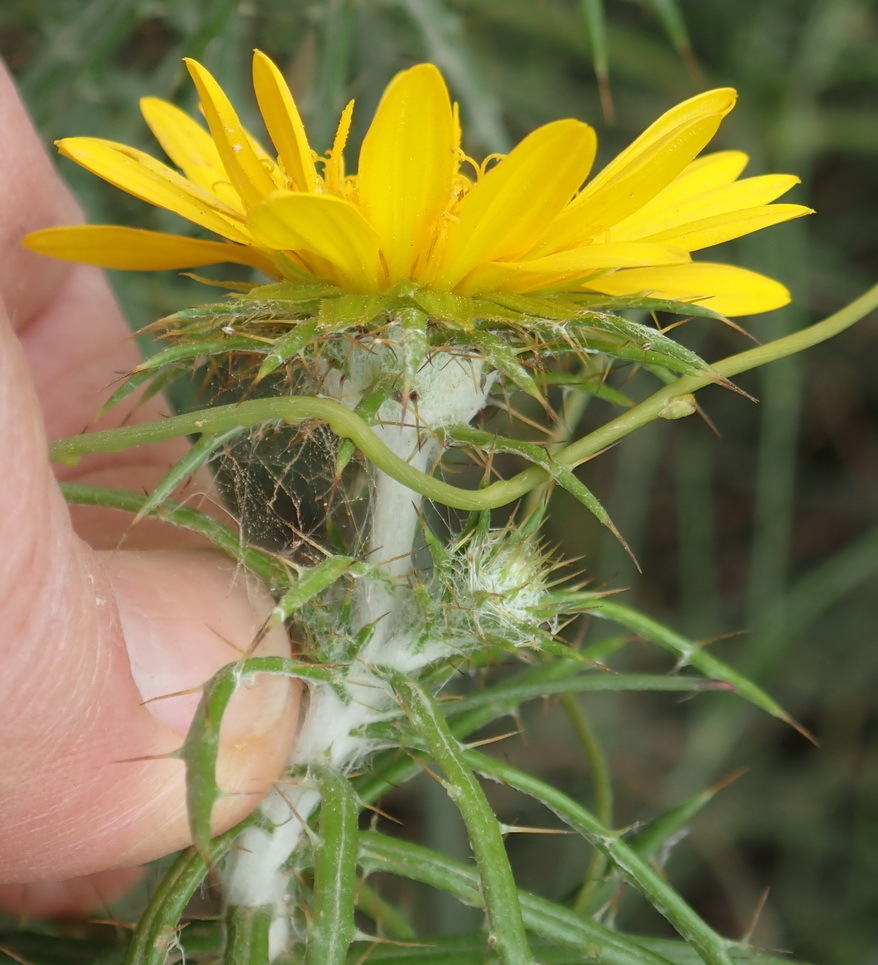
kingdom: Plantae
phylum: Tracheophyta
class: Magnoliopsida
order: Asterales
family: Asteraceae
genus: Cullumia
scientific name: Cullumia bisulca
